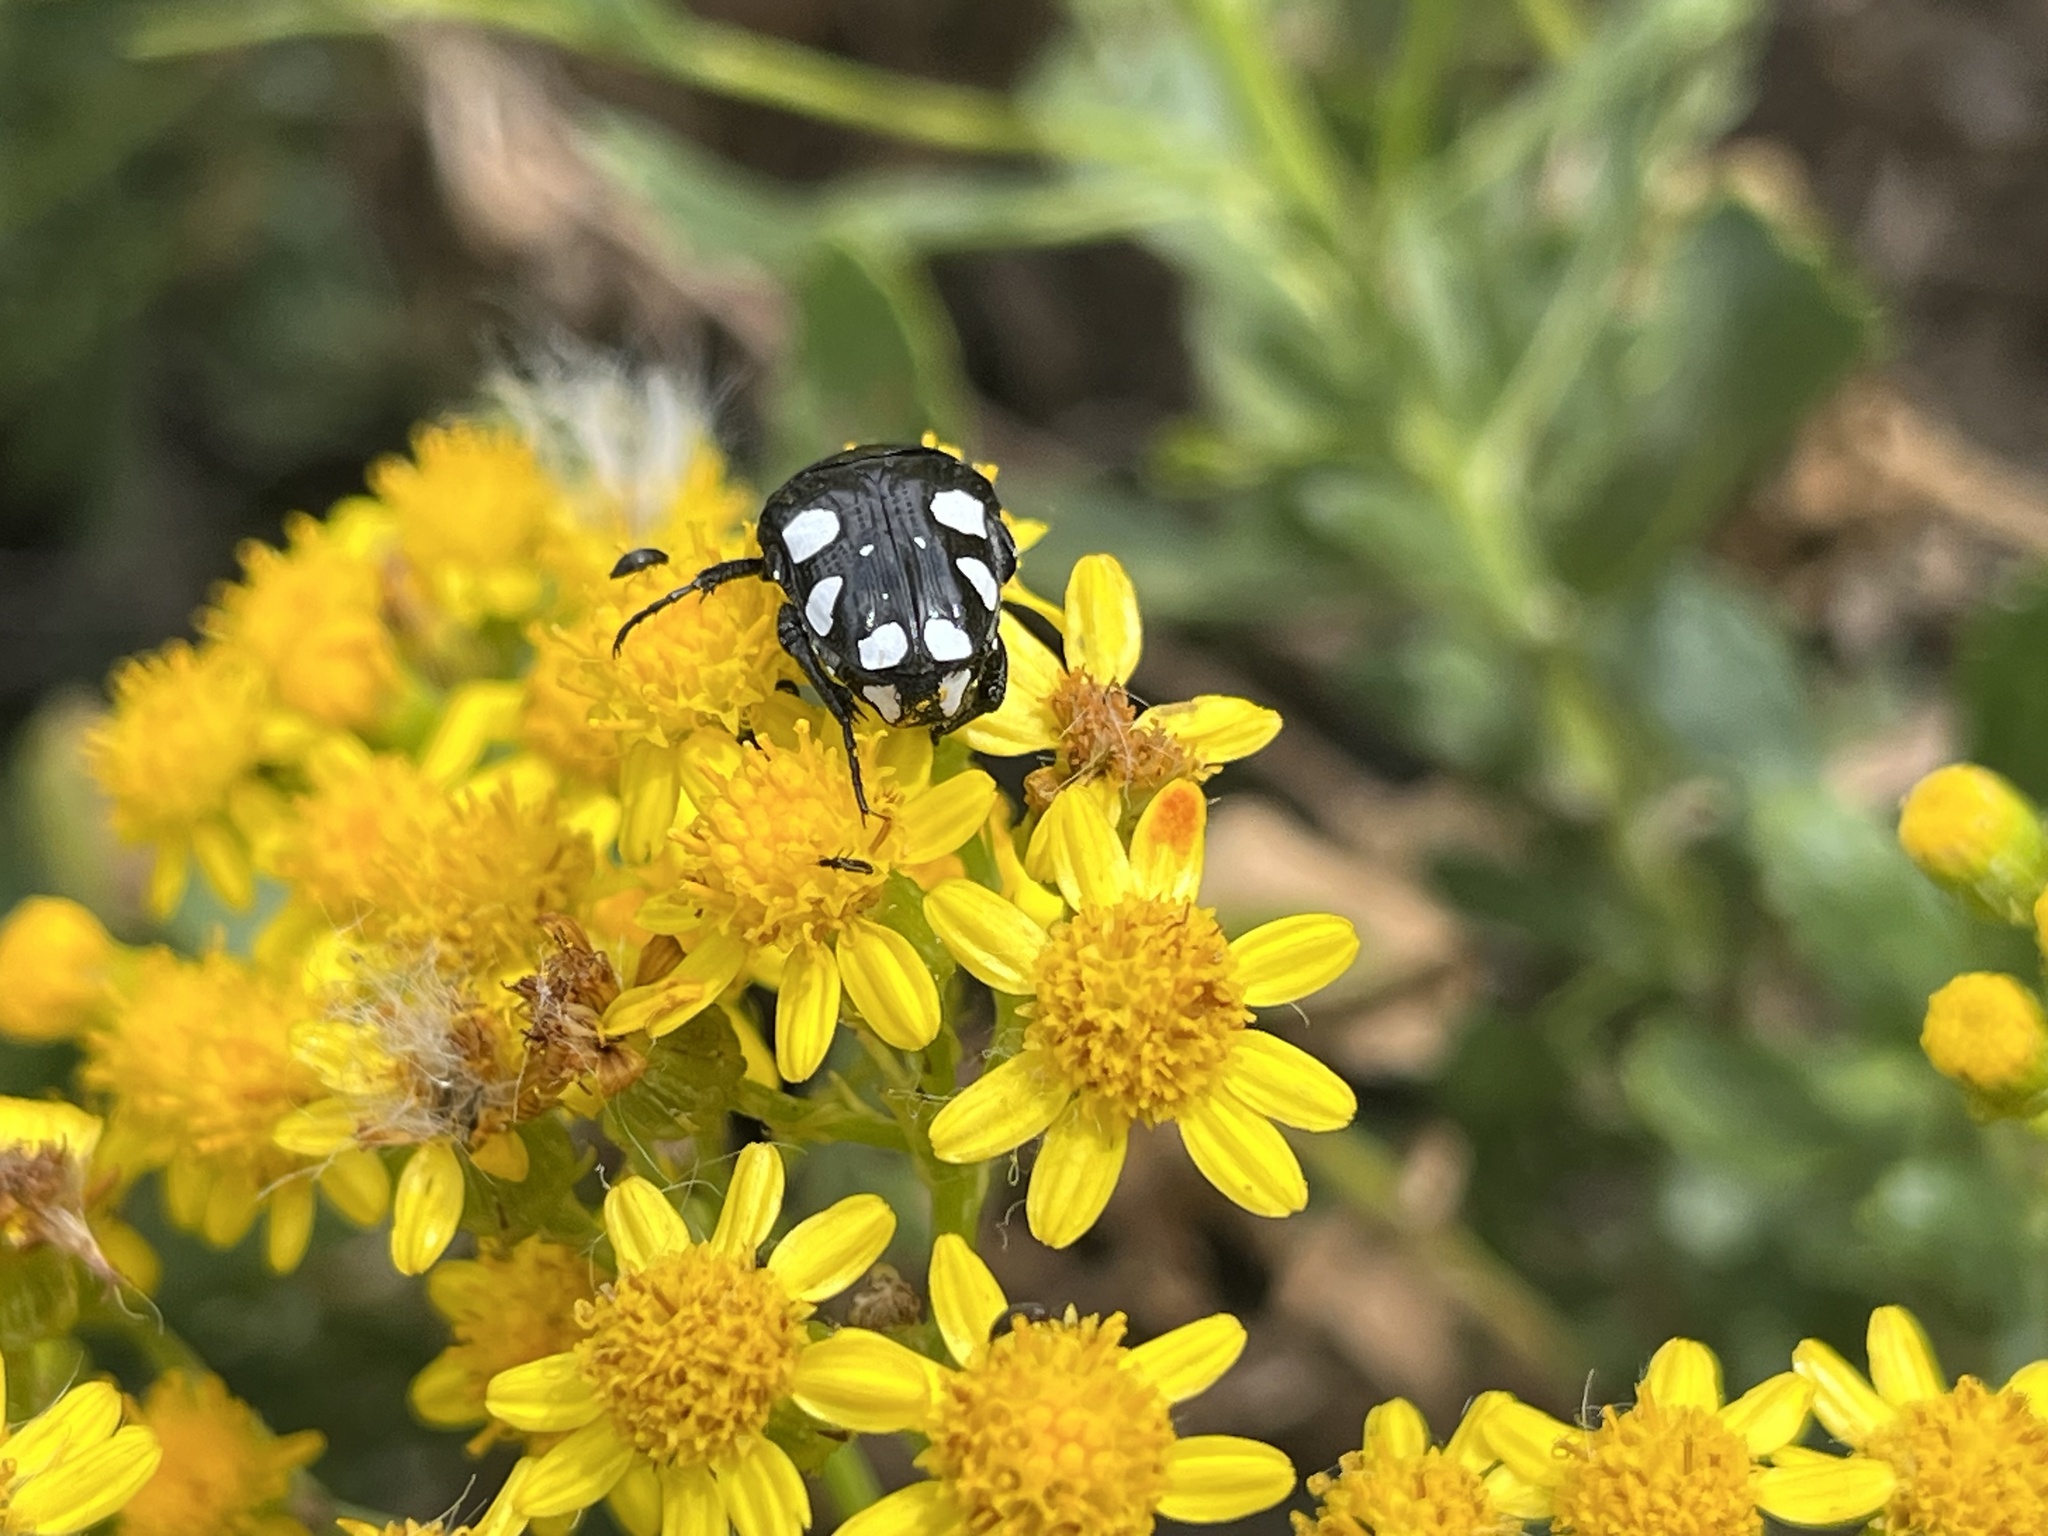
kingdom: Animalia
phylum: Arthropoda
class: Insecta
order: Coleoptera
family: Scarabaeidae
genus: Mausoleopsis
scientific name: Mausoleopsis amabilis
